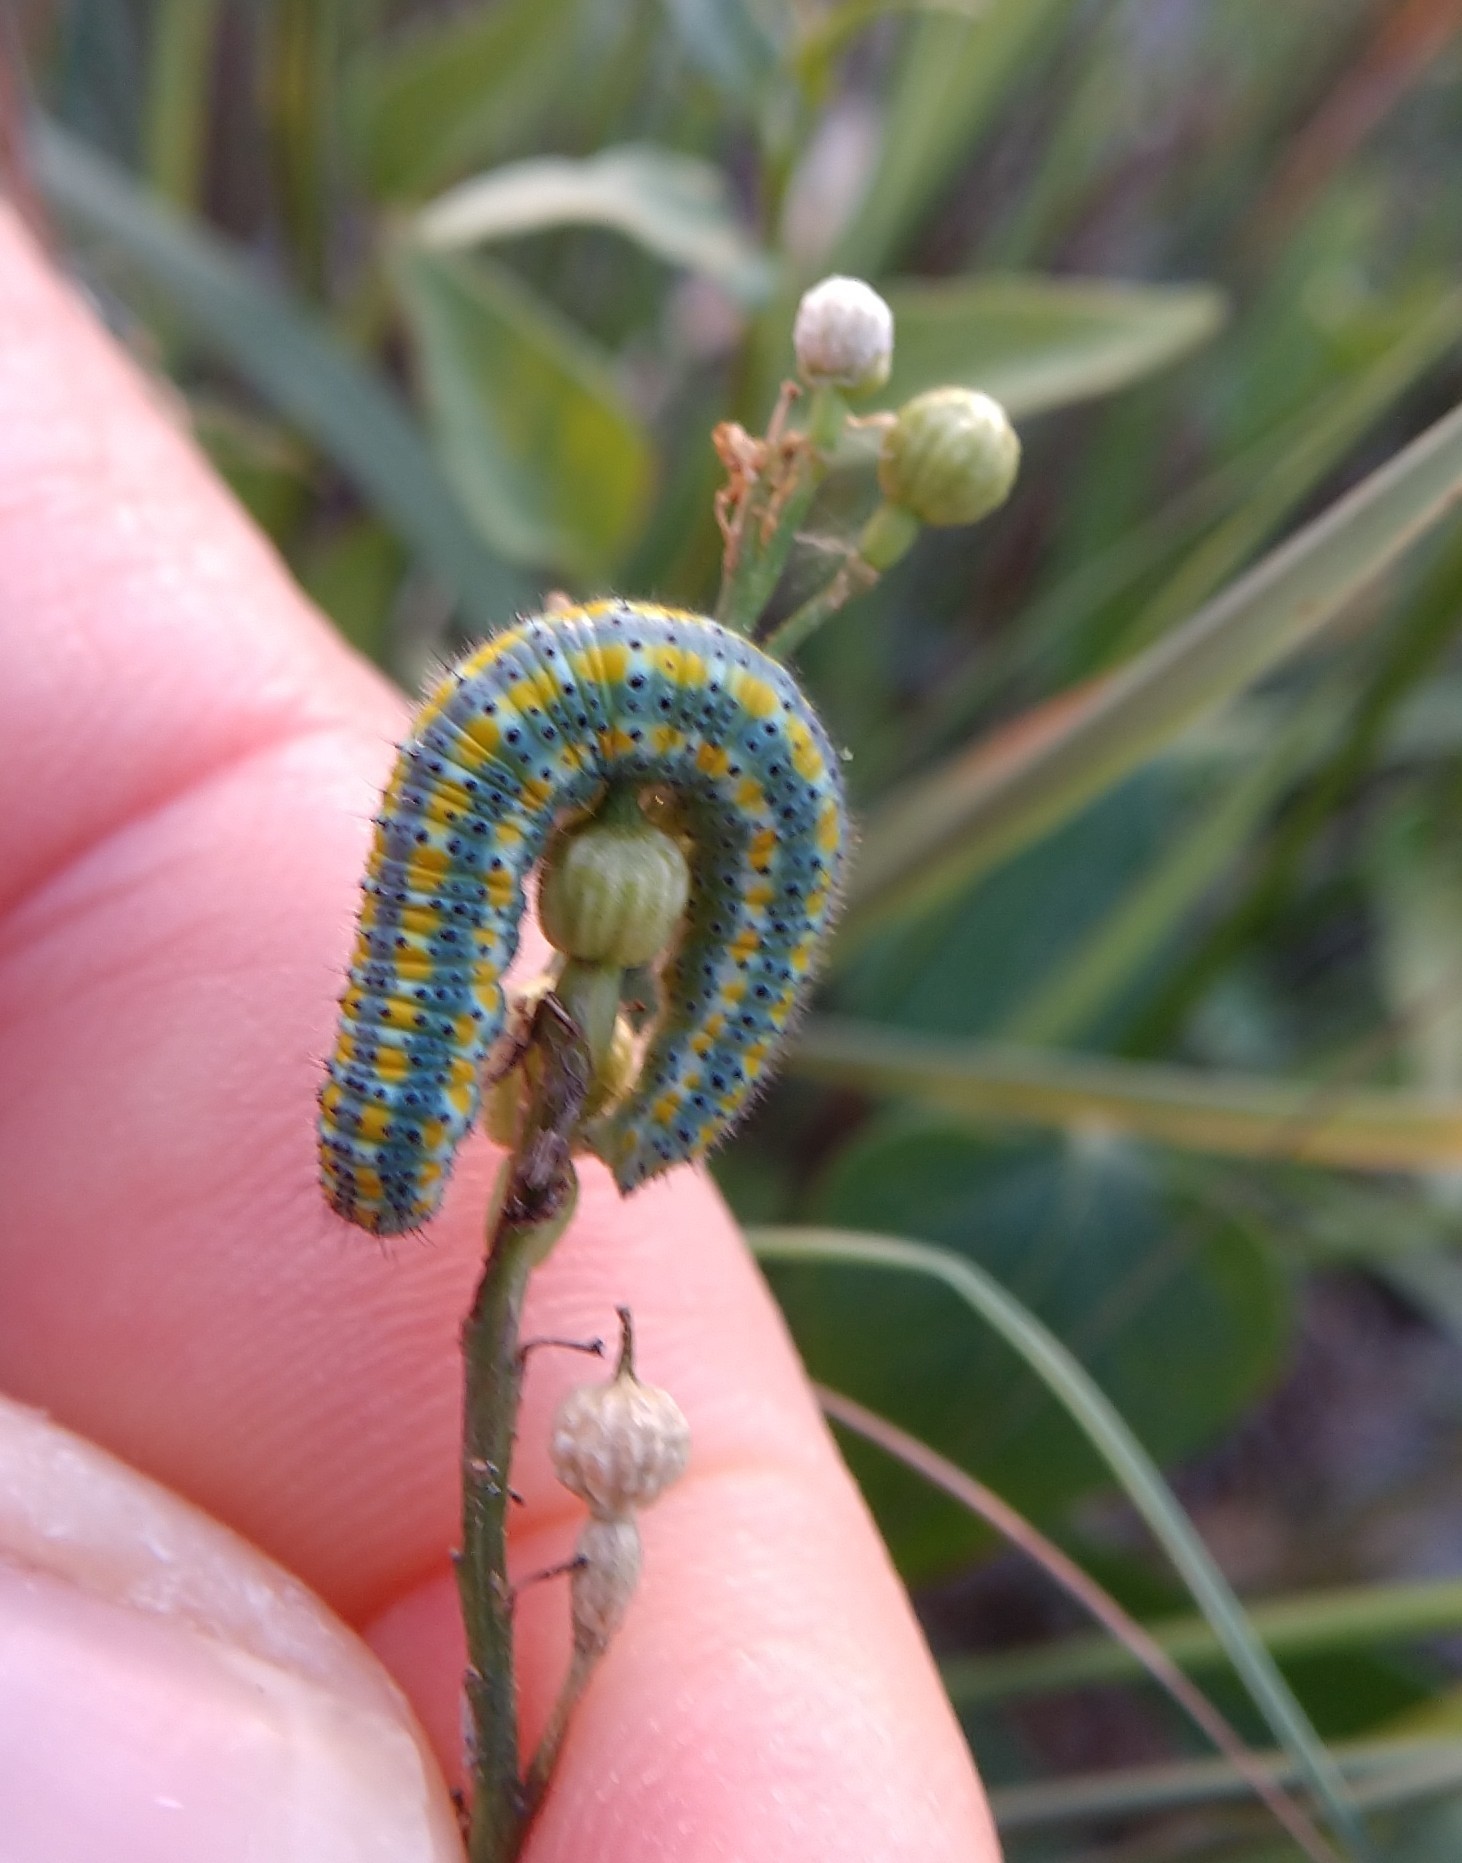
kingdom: Animalia
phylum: Arthropoda
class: Insecta
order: Lepidoptera
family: Pieridae
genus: Pontia
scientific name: Pontia protodice
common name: Checkered white
